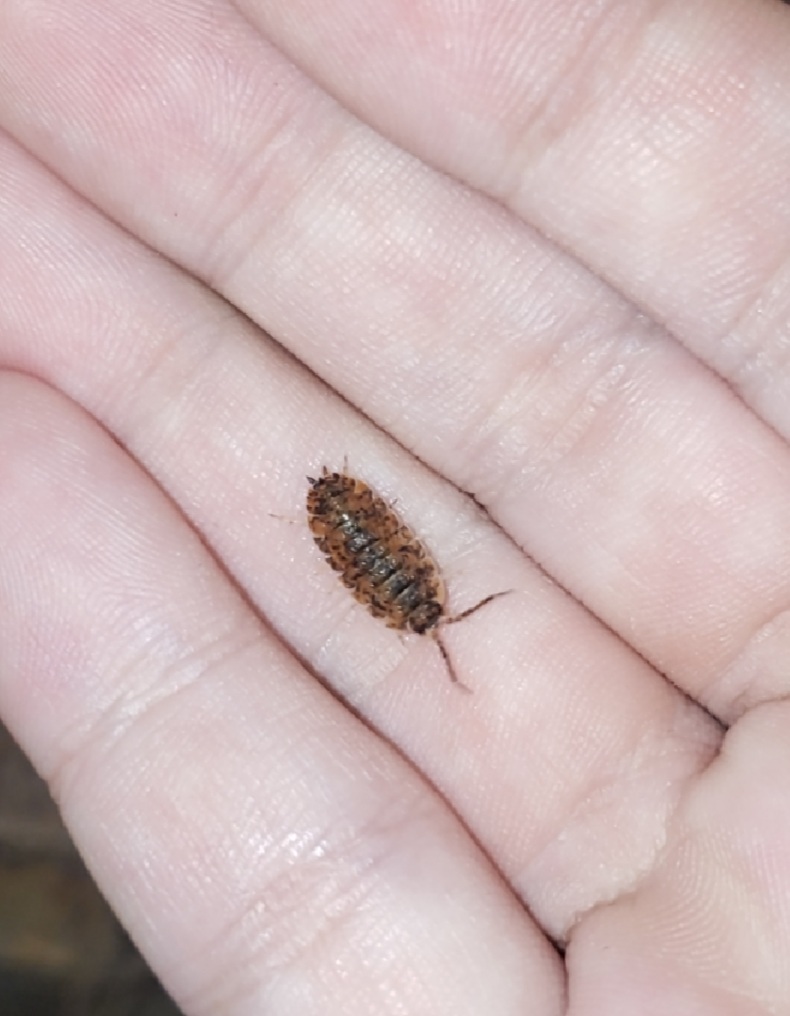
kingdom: Animalia
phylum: Arthropoda
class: Malacostraca
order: Isopoda
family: Porcellionidae
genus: Porcellio
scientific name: Porcellio scaber
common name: Common rough woodlouse
